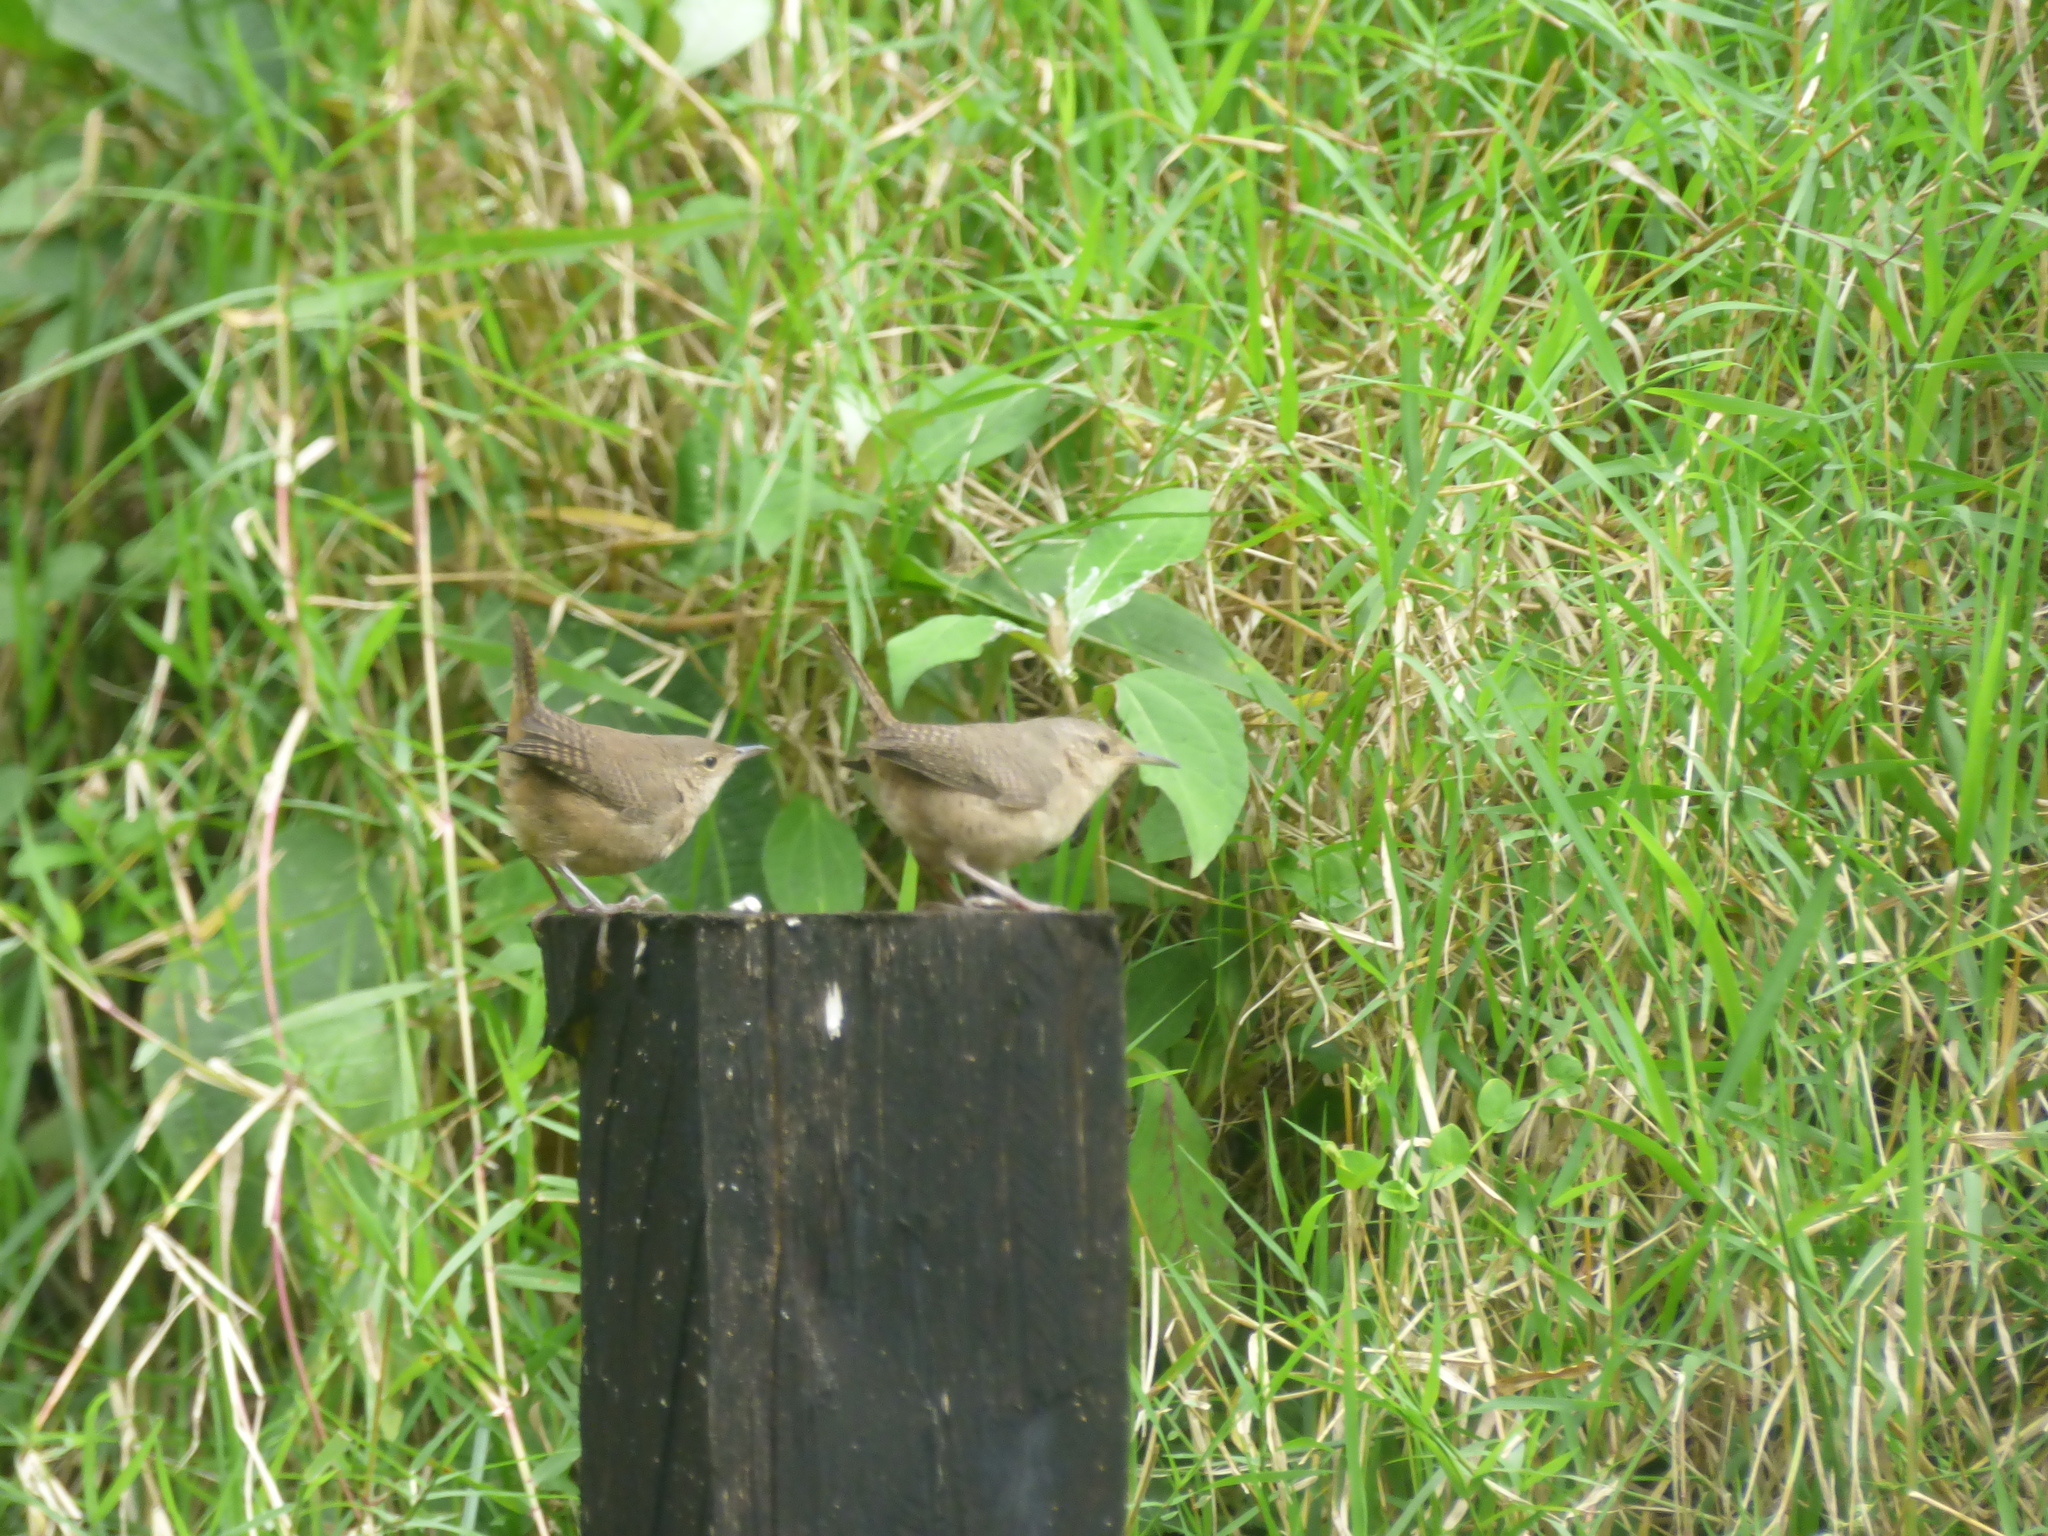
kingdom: Animalia
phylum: Chordata
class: Aves
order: Passeriformes
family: Troglodytidae
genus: Troglodytes
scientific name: Troglodytes aedon
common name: House wren
